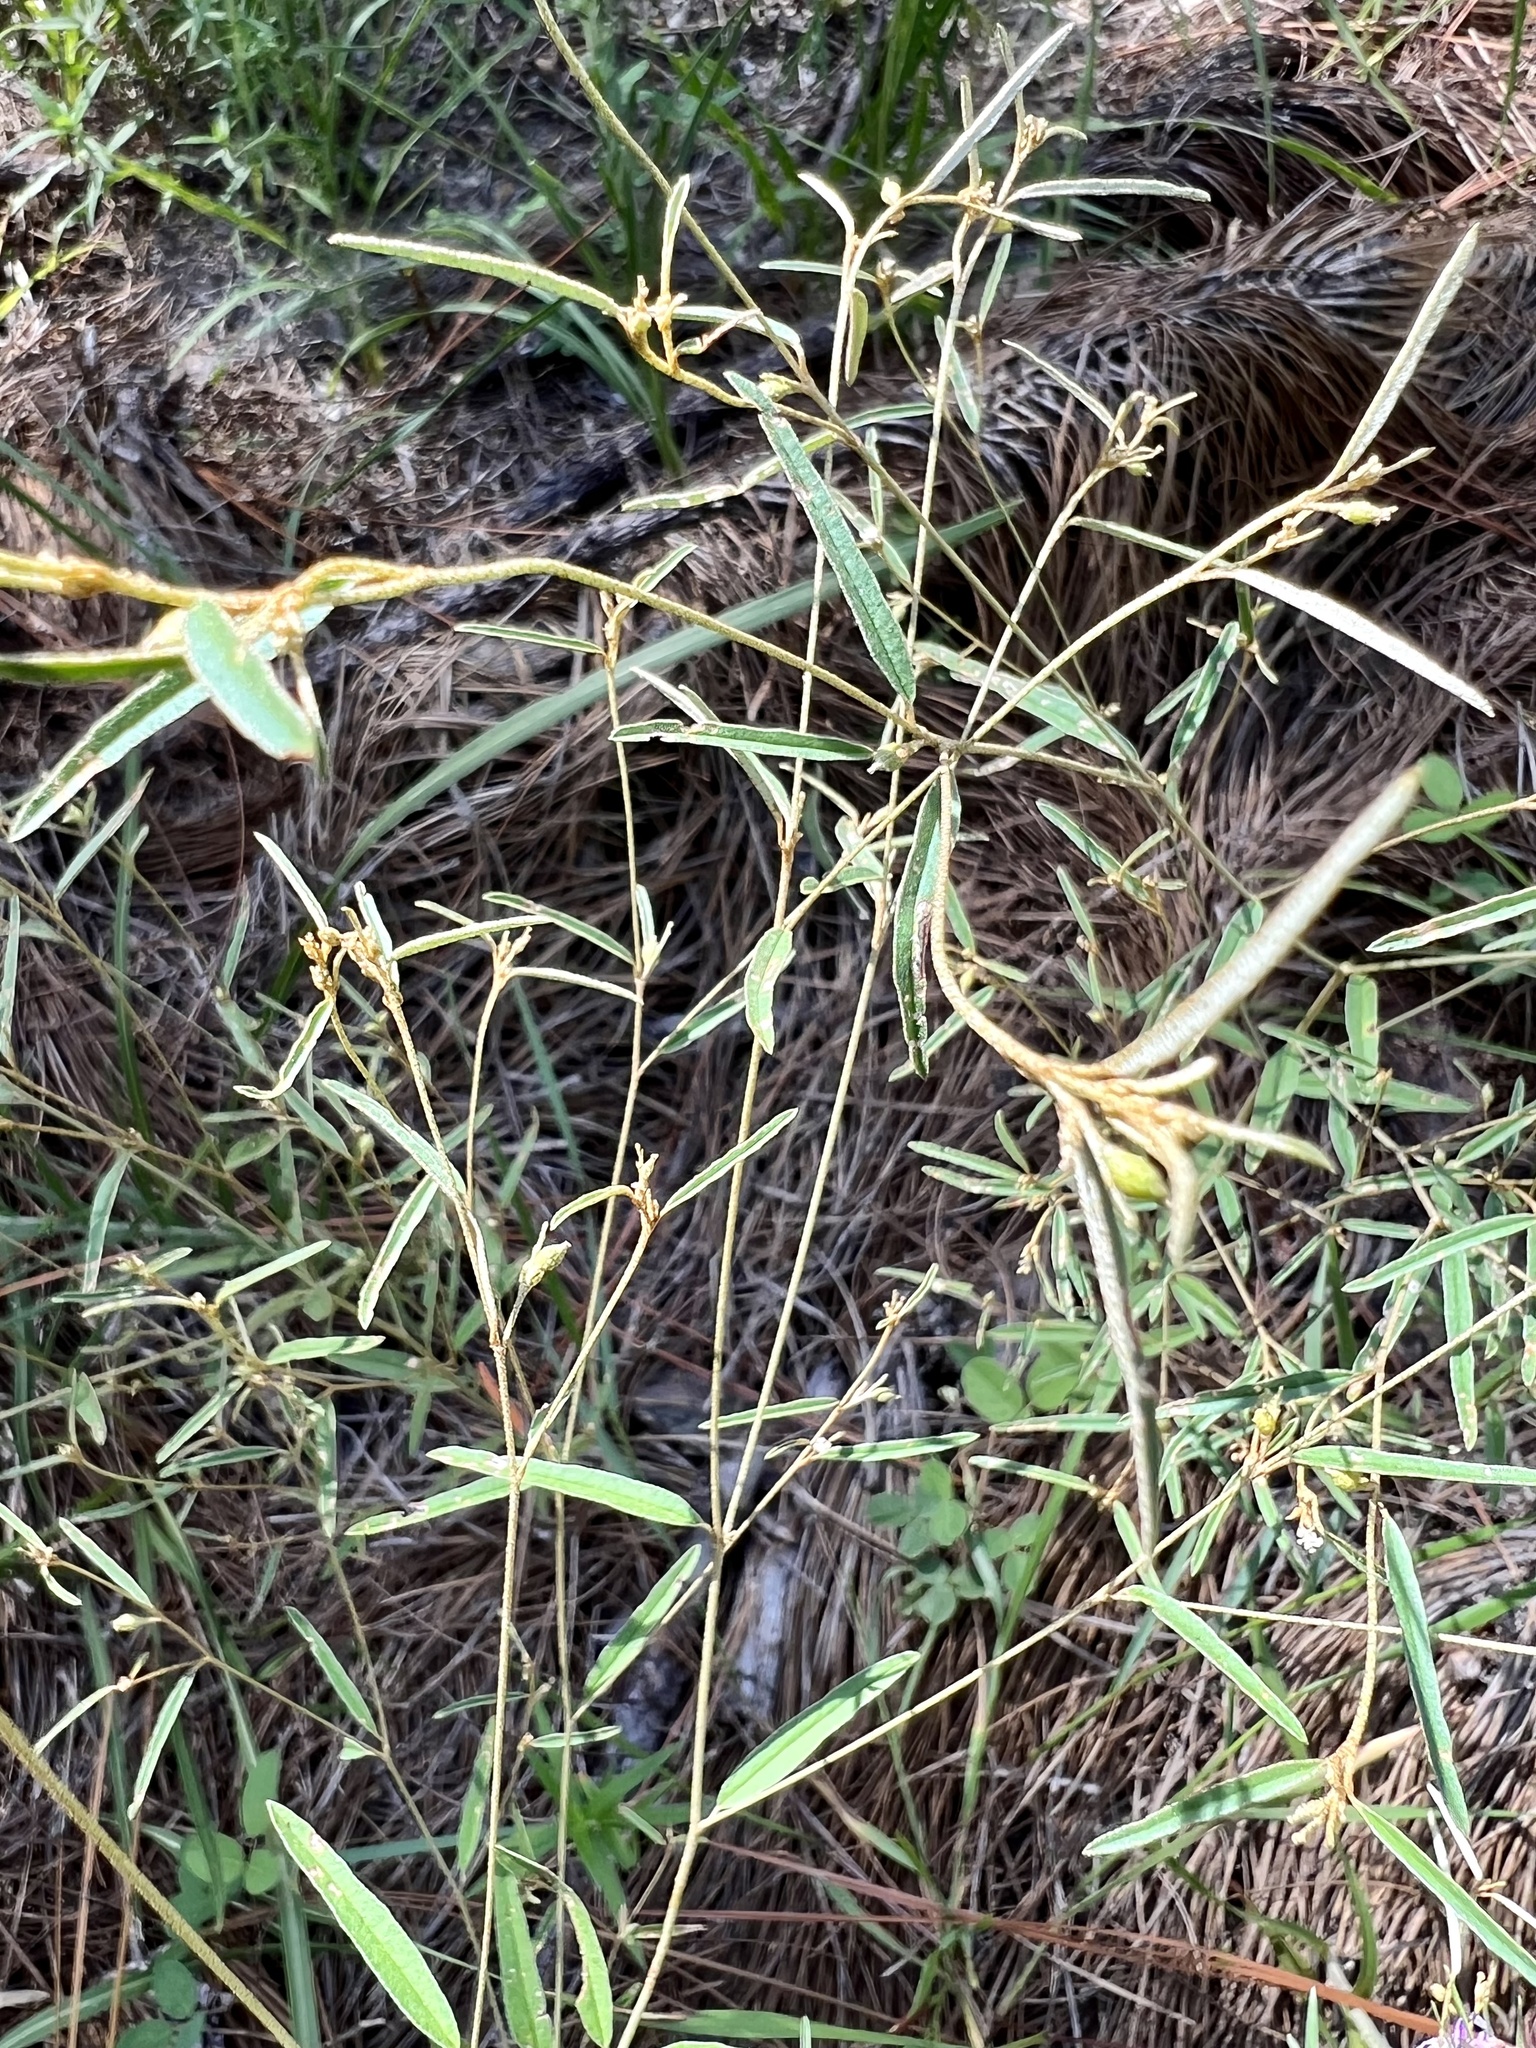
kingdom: Plantae
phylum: Tracheophyta
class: Magnoliopsida
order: Malpighiales
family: Euphorbiaceae
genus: Croton
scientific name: Croton michauxii
